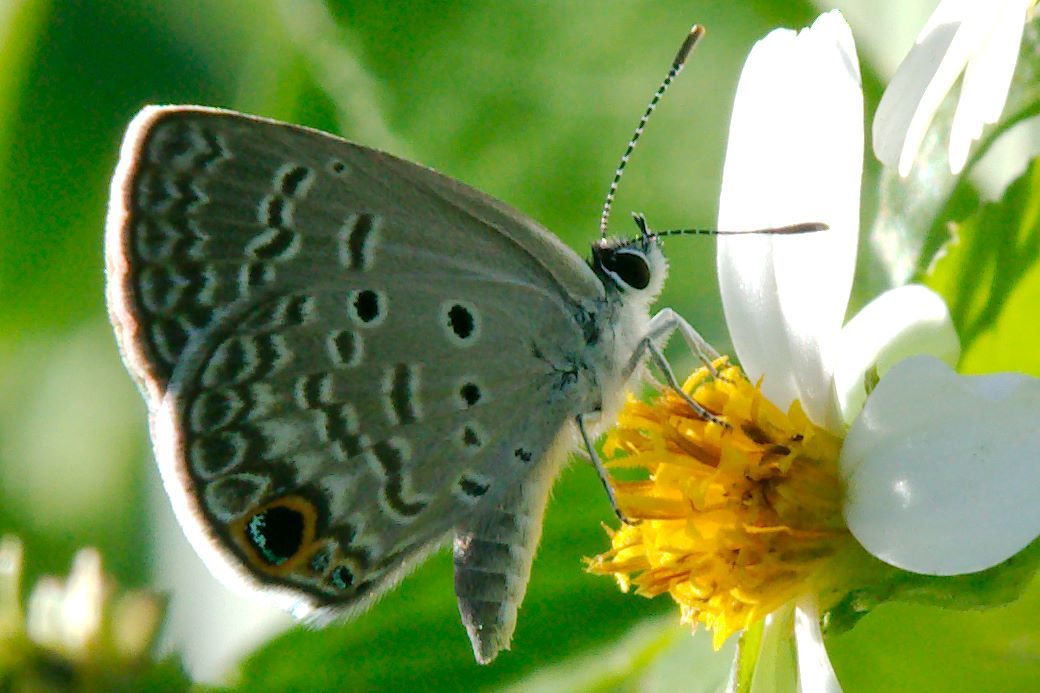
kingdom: Animalia
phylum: Arthropoda
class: Insecta
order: Lepidoptera
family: Lycaenidae
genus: Hemiargus
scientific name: Hemiargus ceraunus
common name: Ceraunus blue
